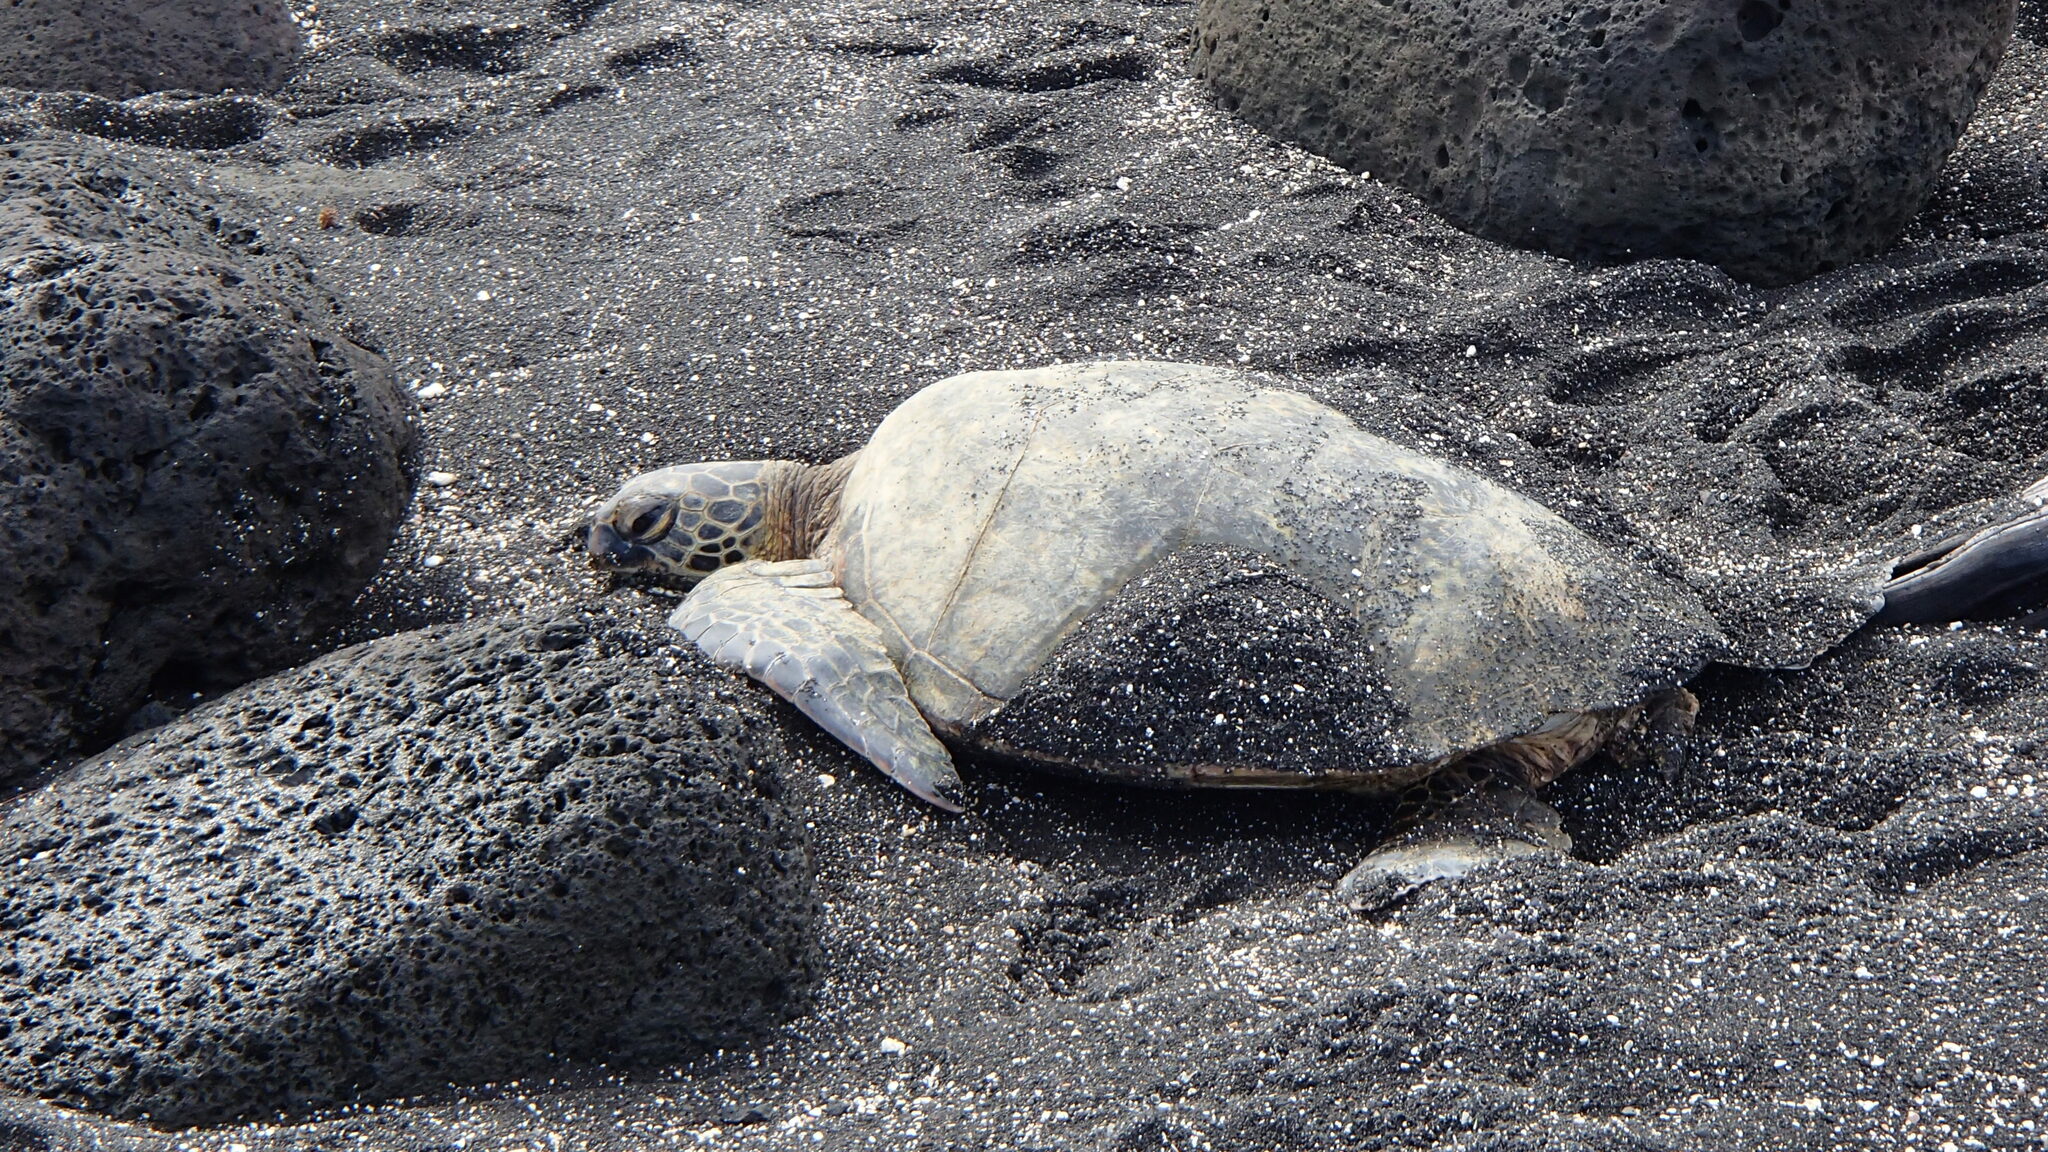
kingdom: Animalia
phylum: Chordata
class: Testudines
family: Cheloniidae
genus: Chelonia
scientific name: Chelonia mydas
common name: Green turtle
